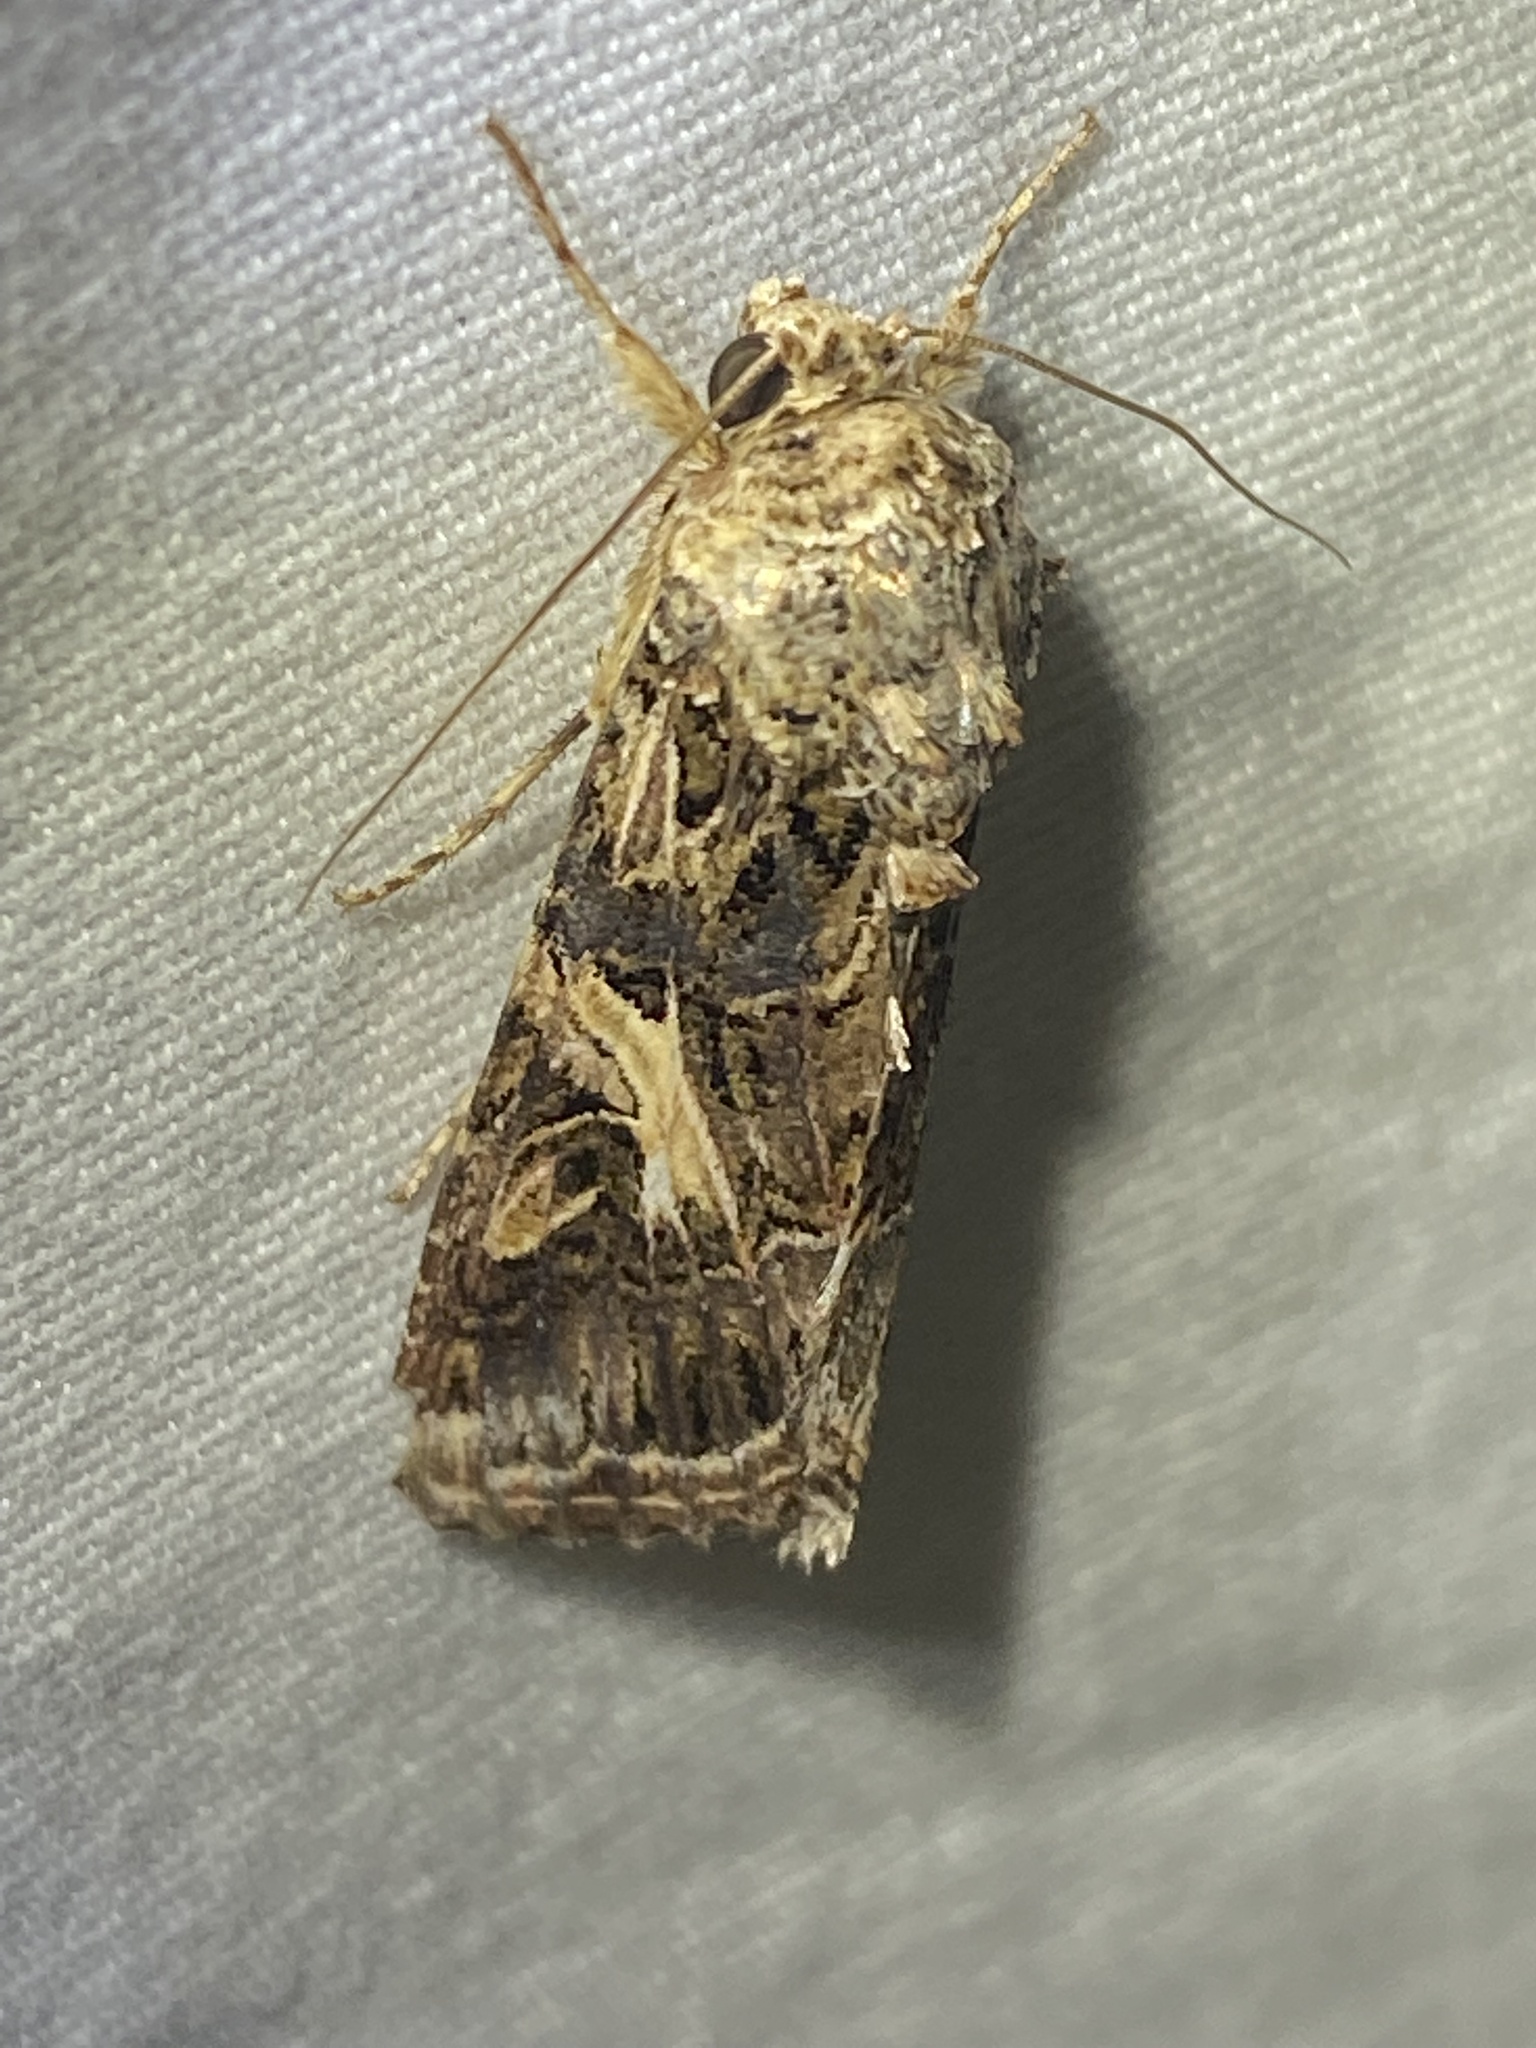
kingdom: Animalia
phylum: Arthropoda
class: Insecta
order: Lepidoptera
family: Noctuidae
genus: Spodoptera
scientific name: Spodoptera ornithogalli
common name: Yellow-striped armyworm
